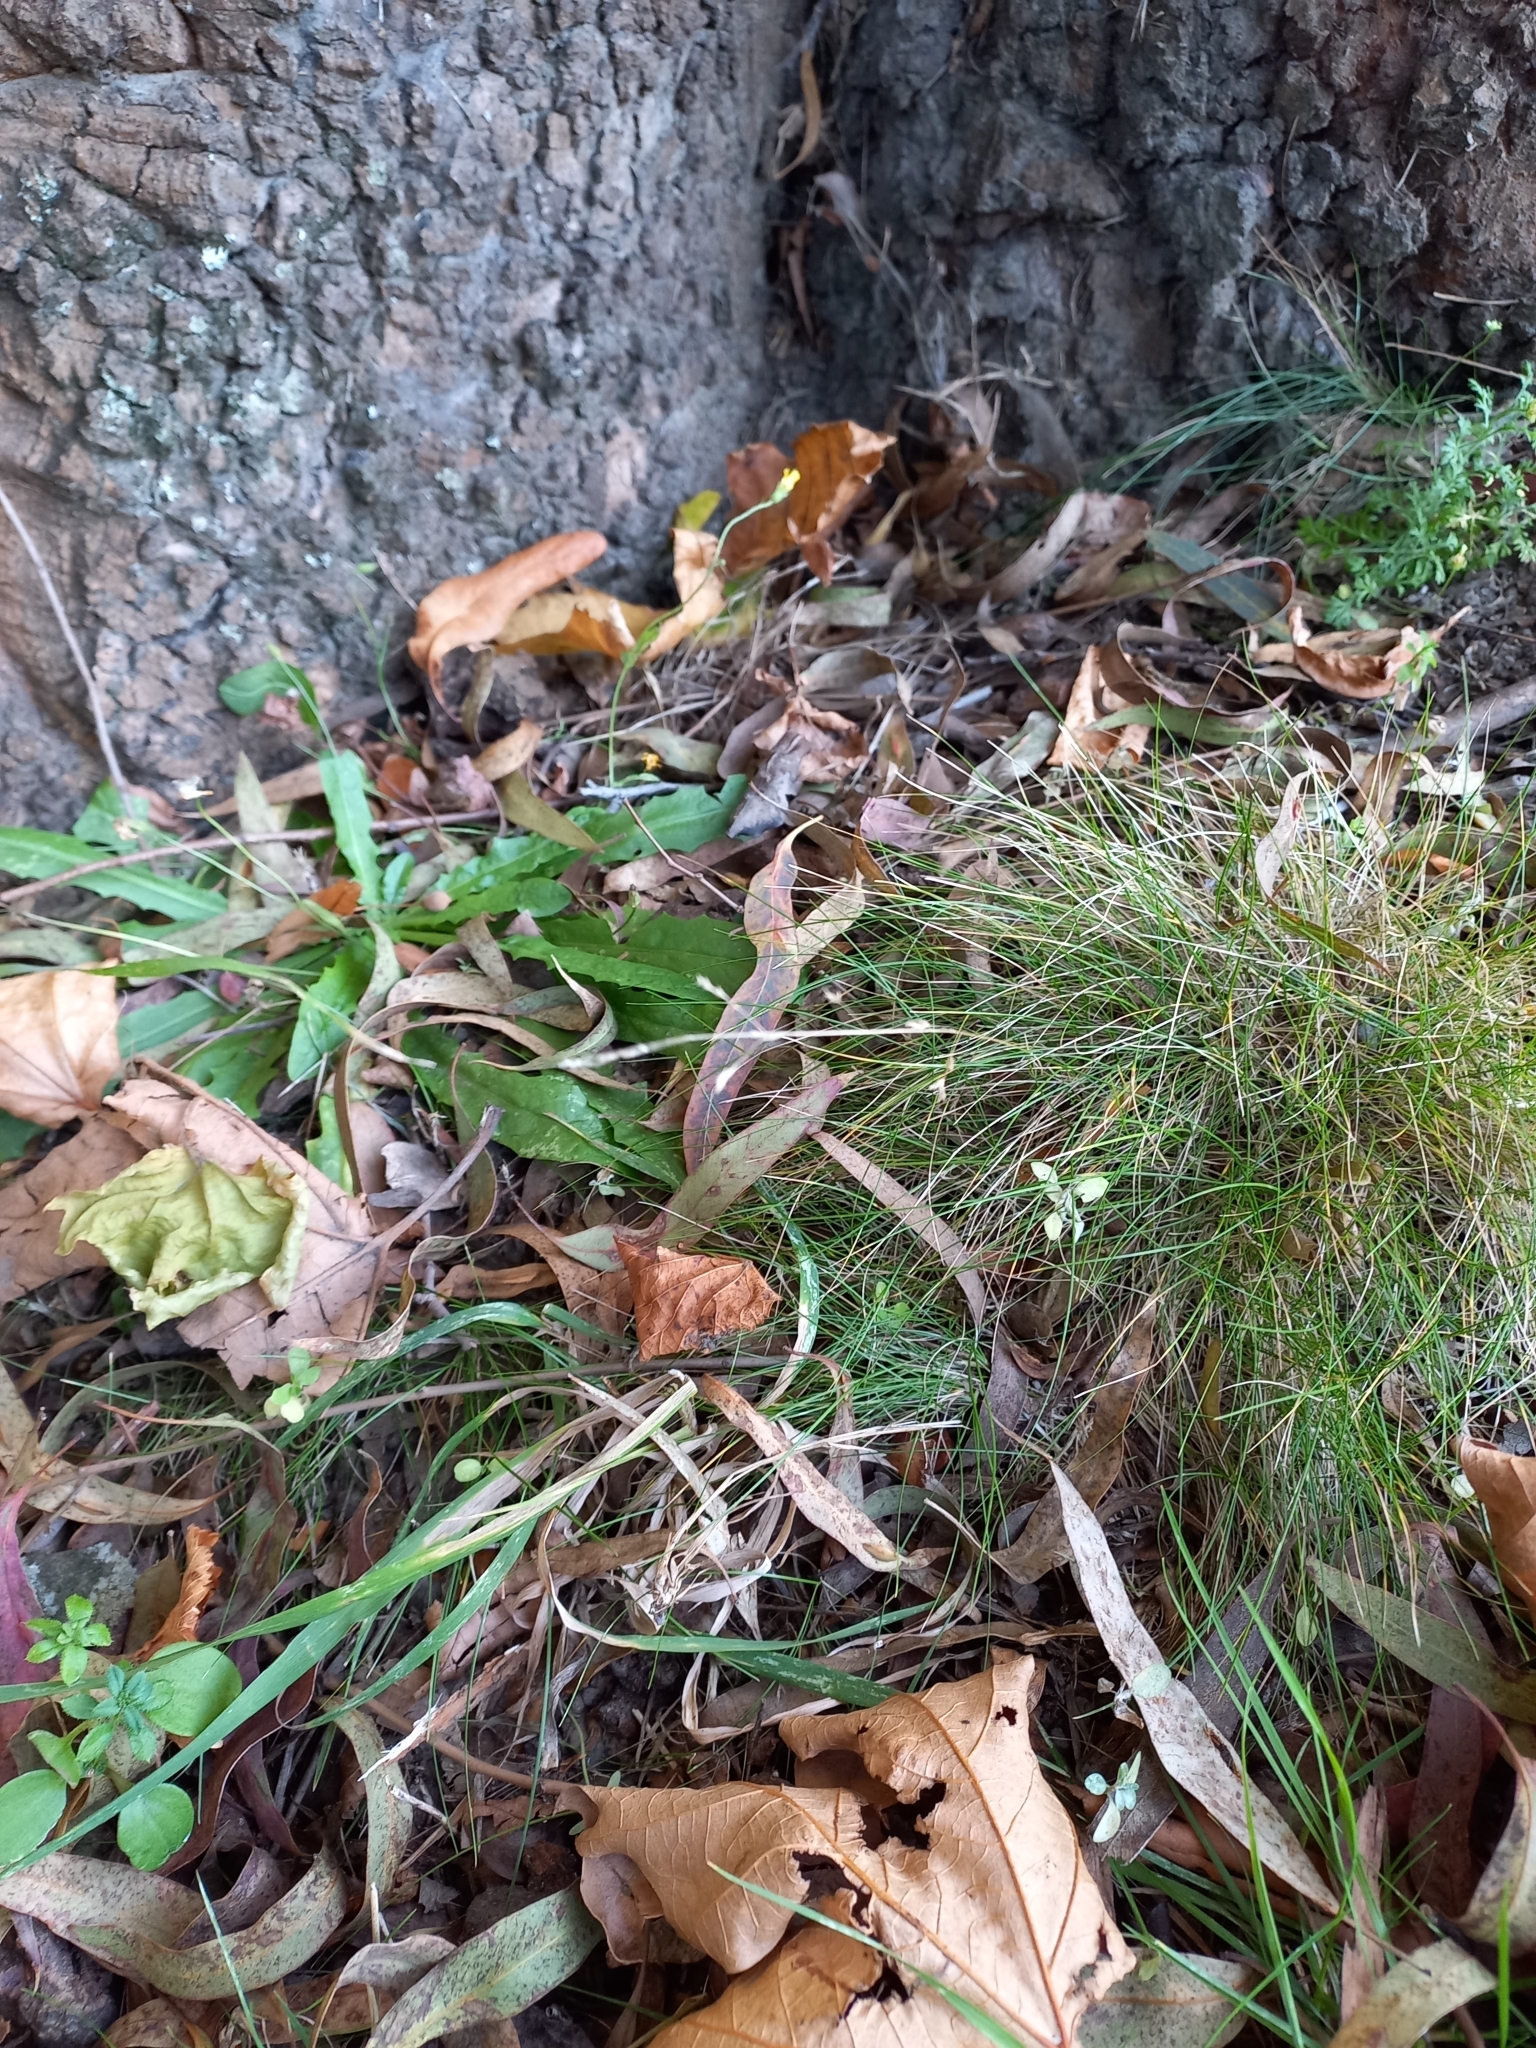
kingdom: Plantae
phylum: Tracheophyta
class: Liliopsida
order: Poales
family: Poaceae
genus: Poa
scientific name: Poa imbecilla
